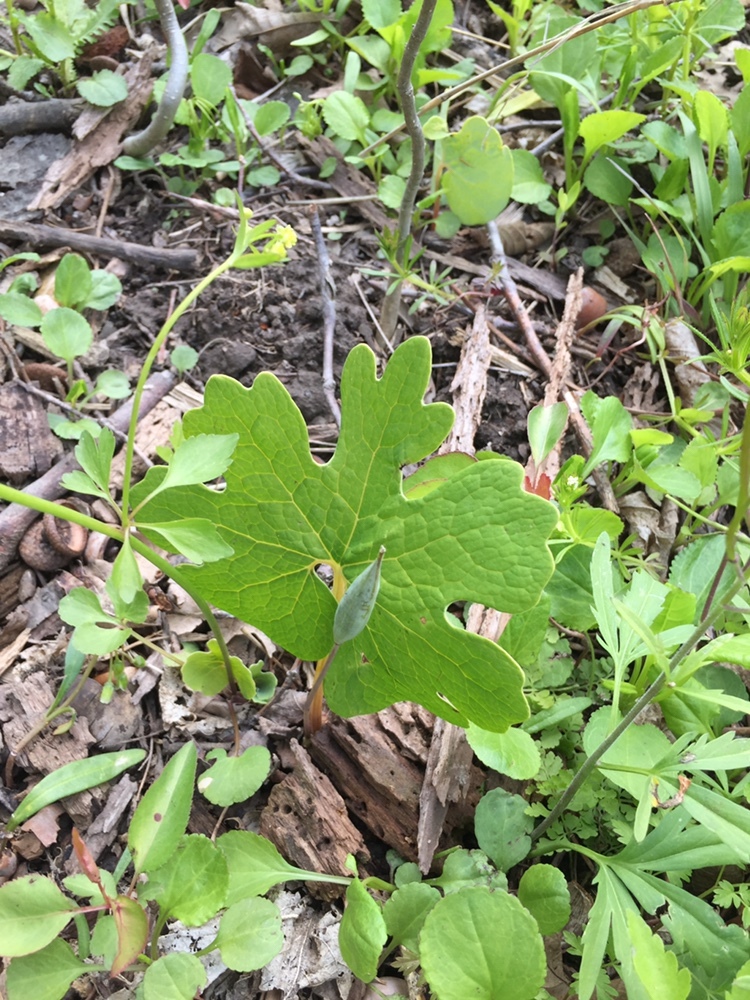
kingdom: Plantae
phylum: Tracheophyta
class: Magnoliopsida
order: Ranunculales
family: Papaveraceae
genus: Sanguinaria
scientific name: Sanguinaria canadensis
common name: Bloodroot
